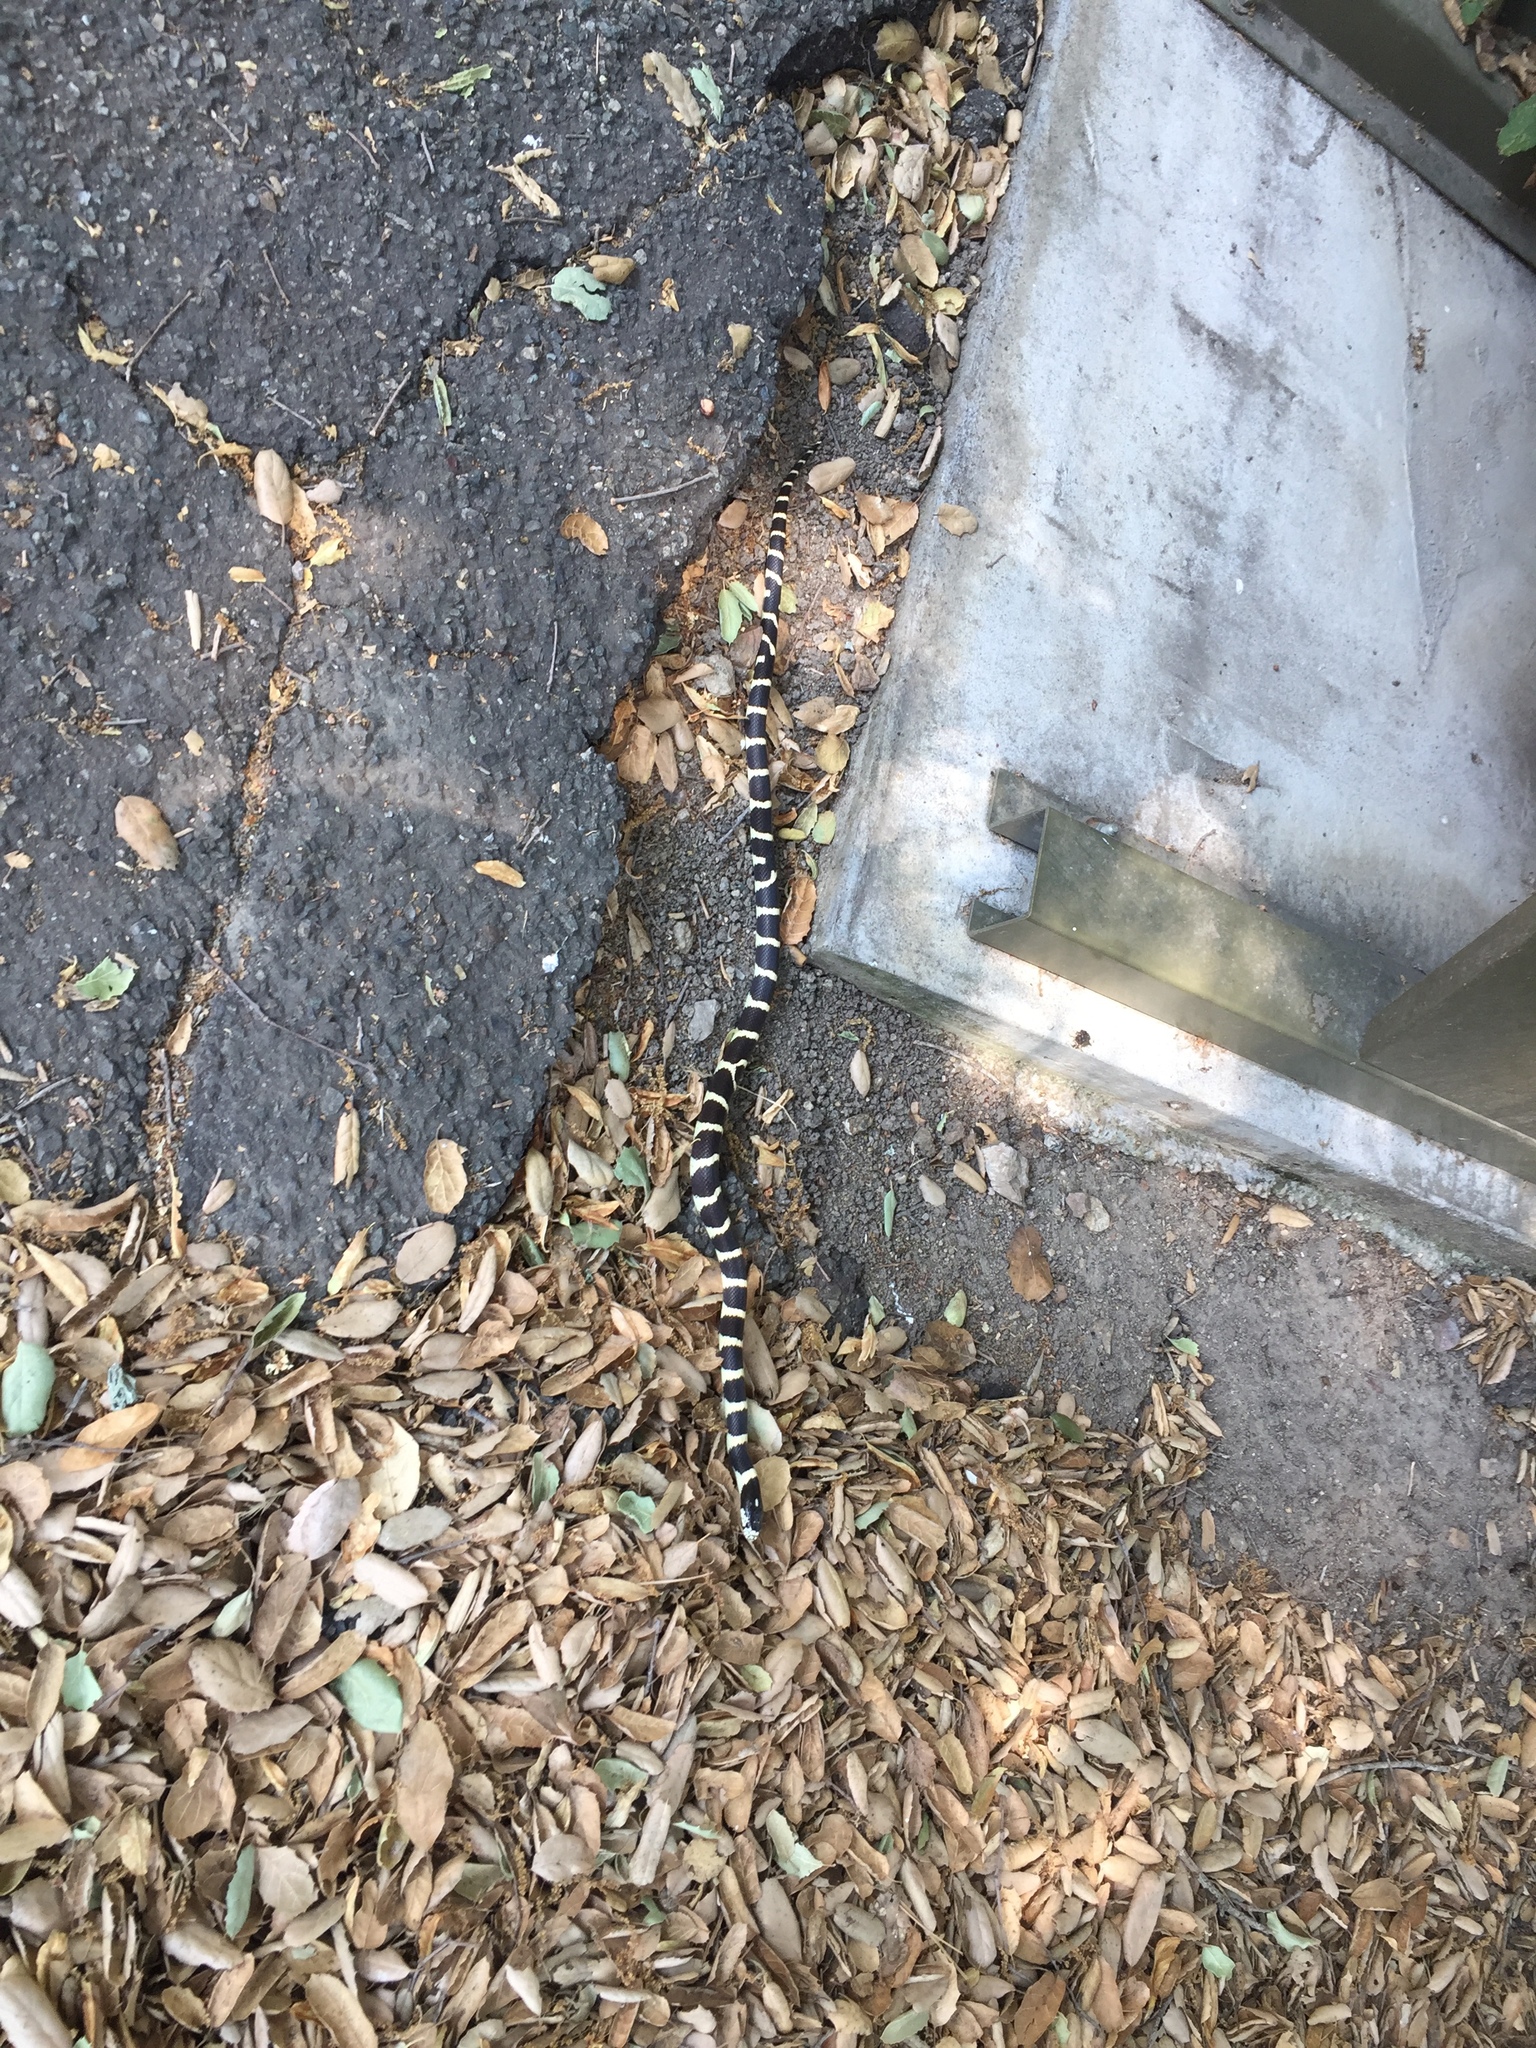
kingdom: Animalia
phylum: Chordata
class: Squamata
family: Colubridae
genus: Lampropeltis
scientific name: Lampropeltis californiae
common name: California kingsnake
